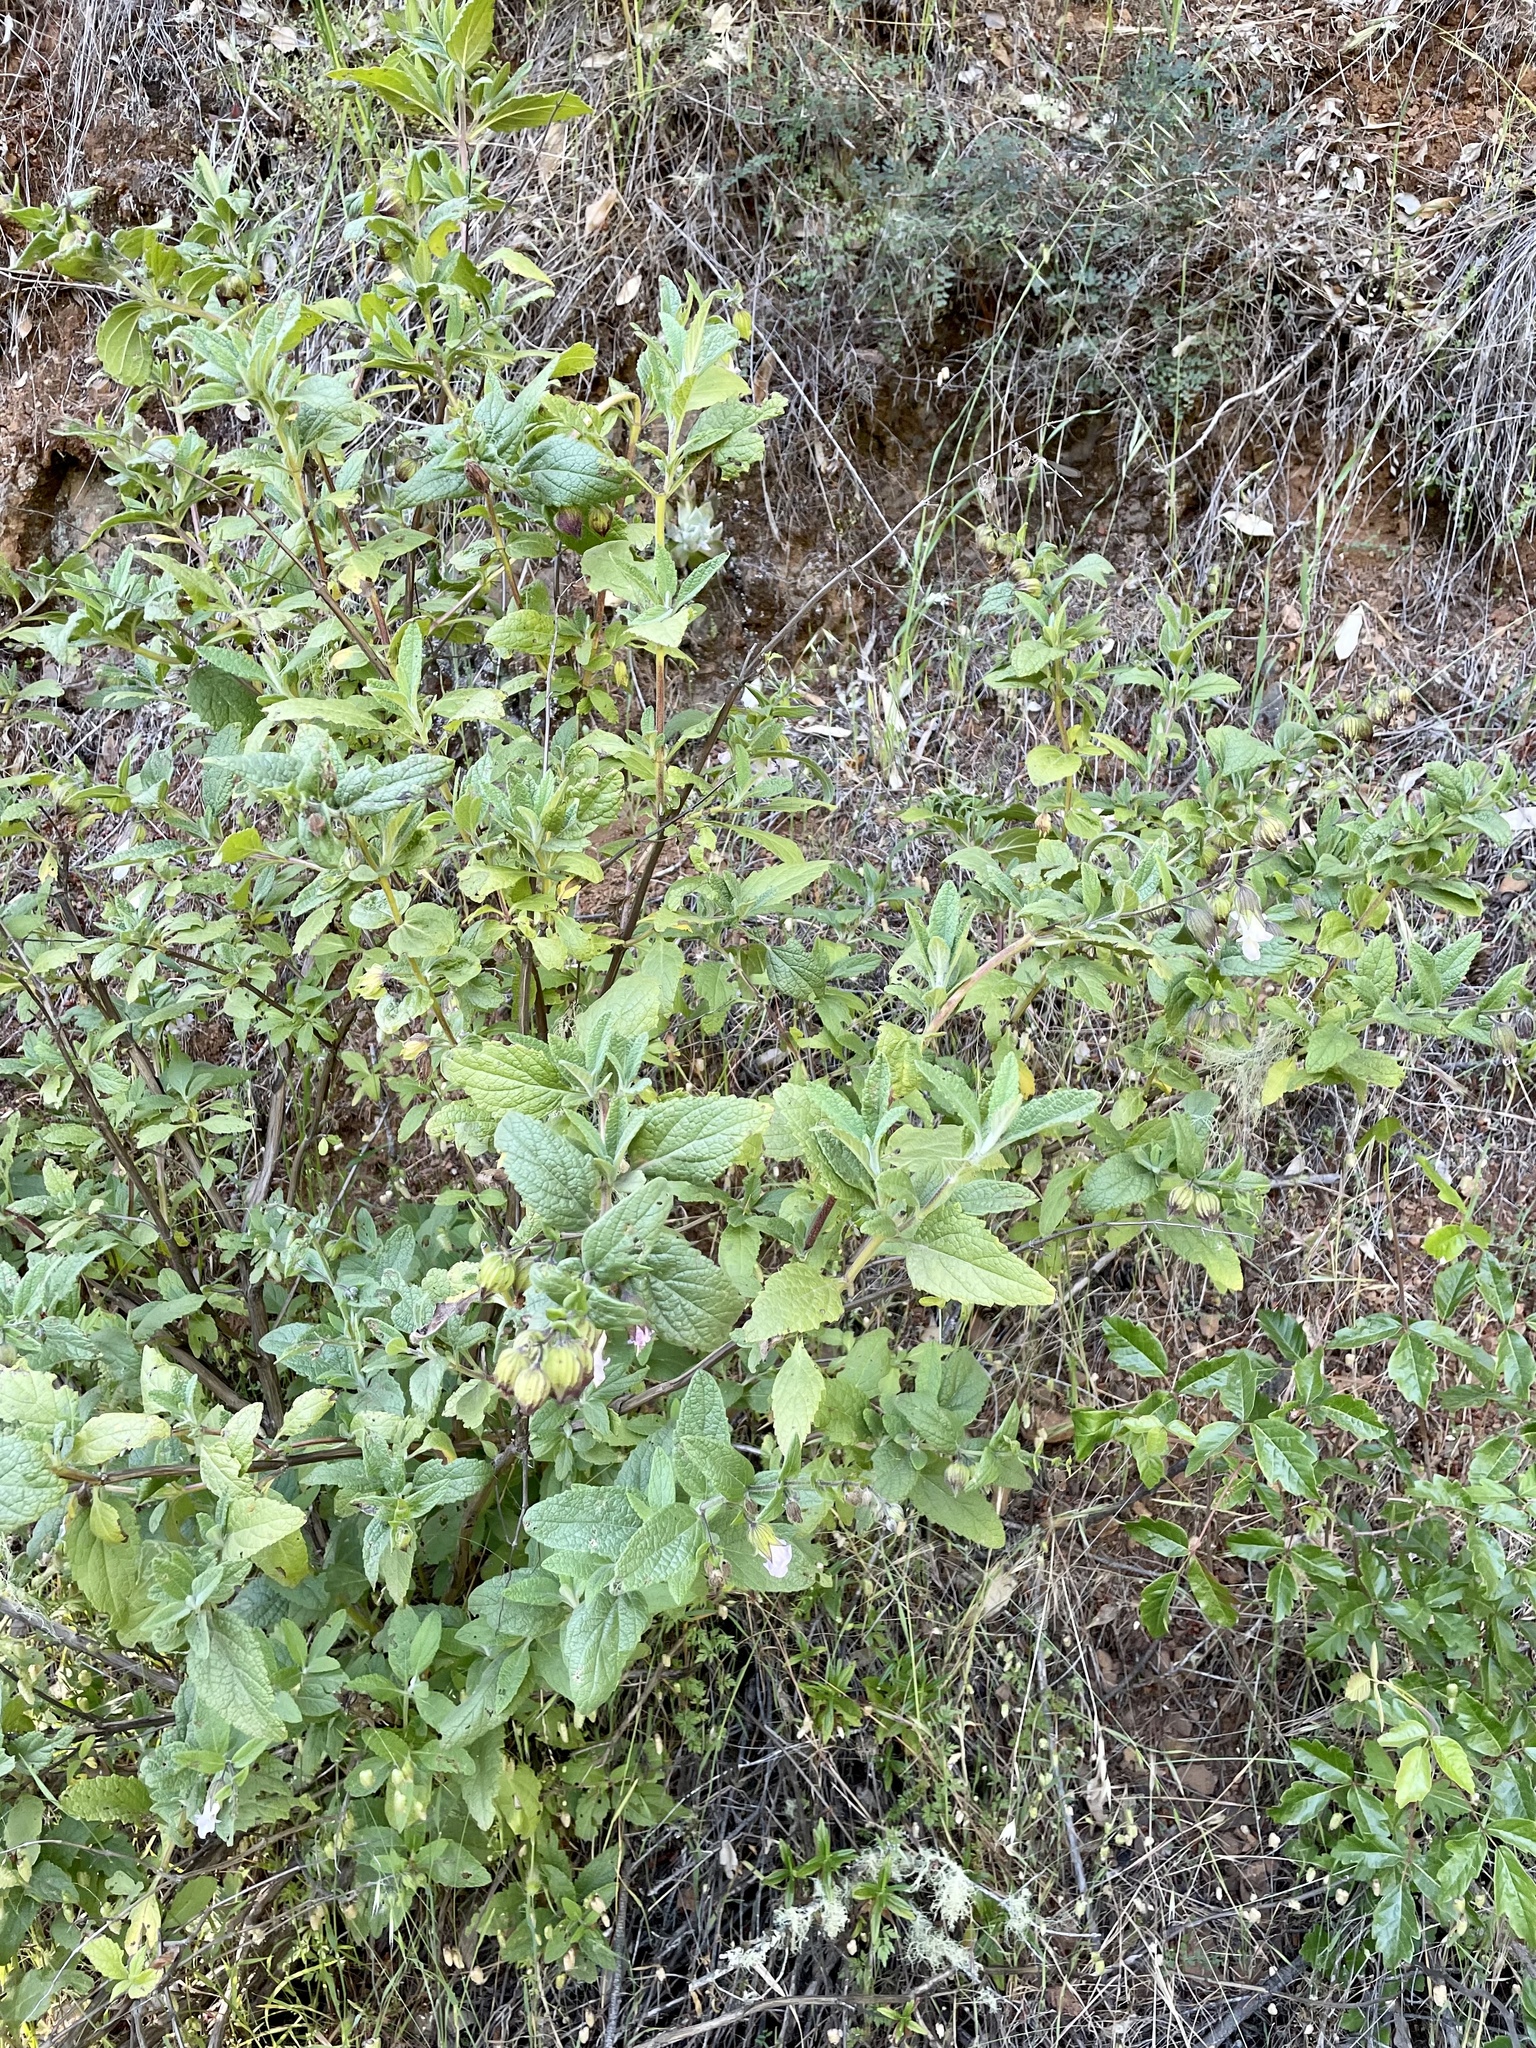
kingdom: Plantae
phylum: Tracheophyta
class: Magnoliopsida
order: Lamiales
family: Lamiaceae
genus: Lepechinia
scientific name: Lepechinia calycina
